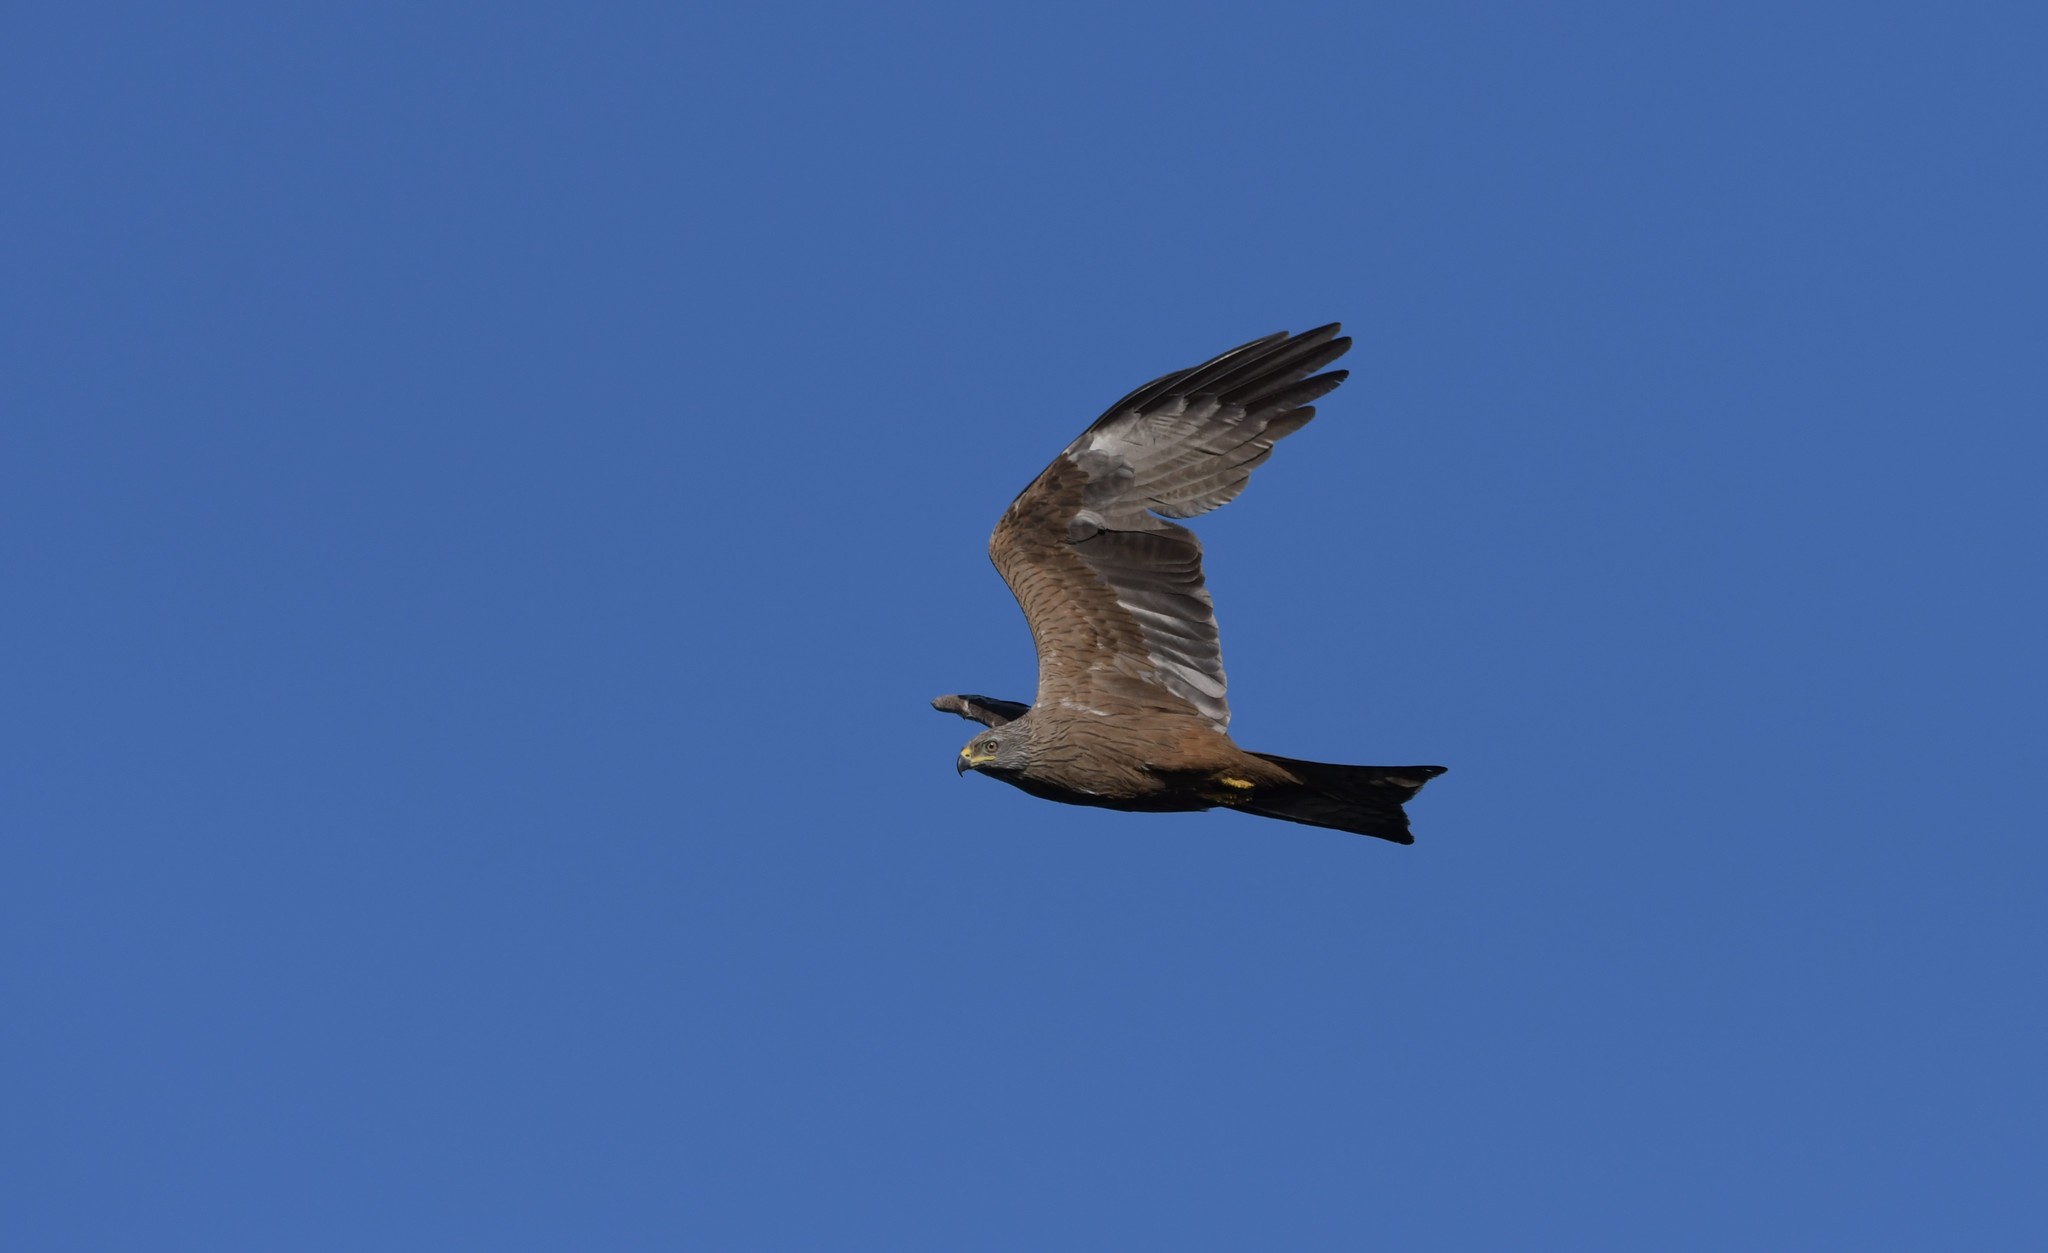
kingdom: Animalia
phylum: Chordata
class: Aves
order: Accipitriformes
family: Accipitridae
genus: Milvus
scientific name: Milvus migrans
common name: Black kite
